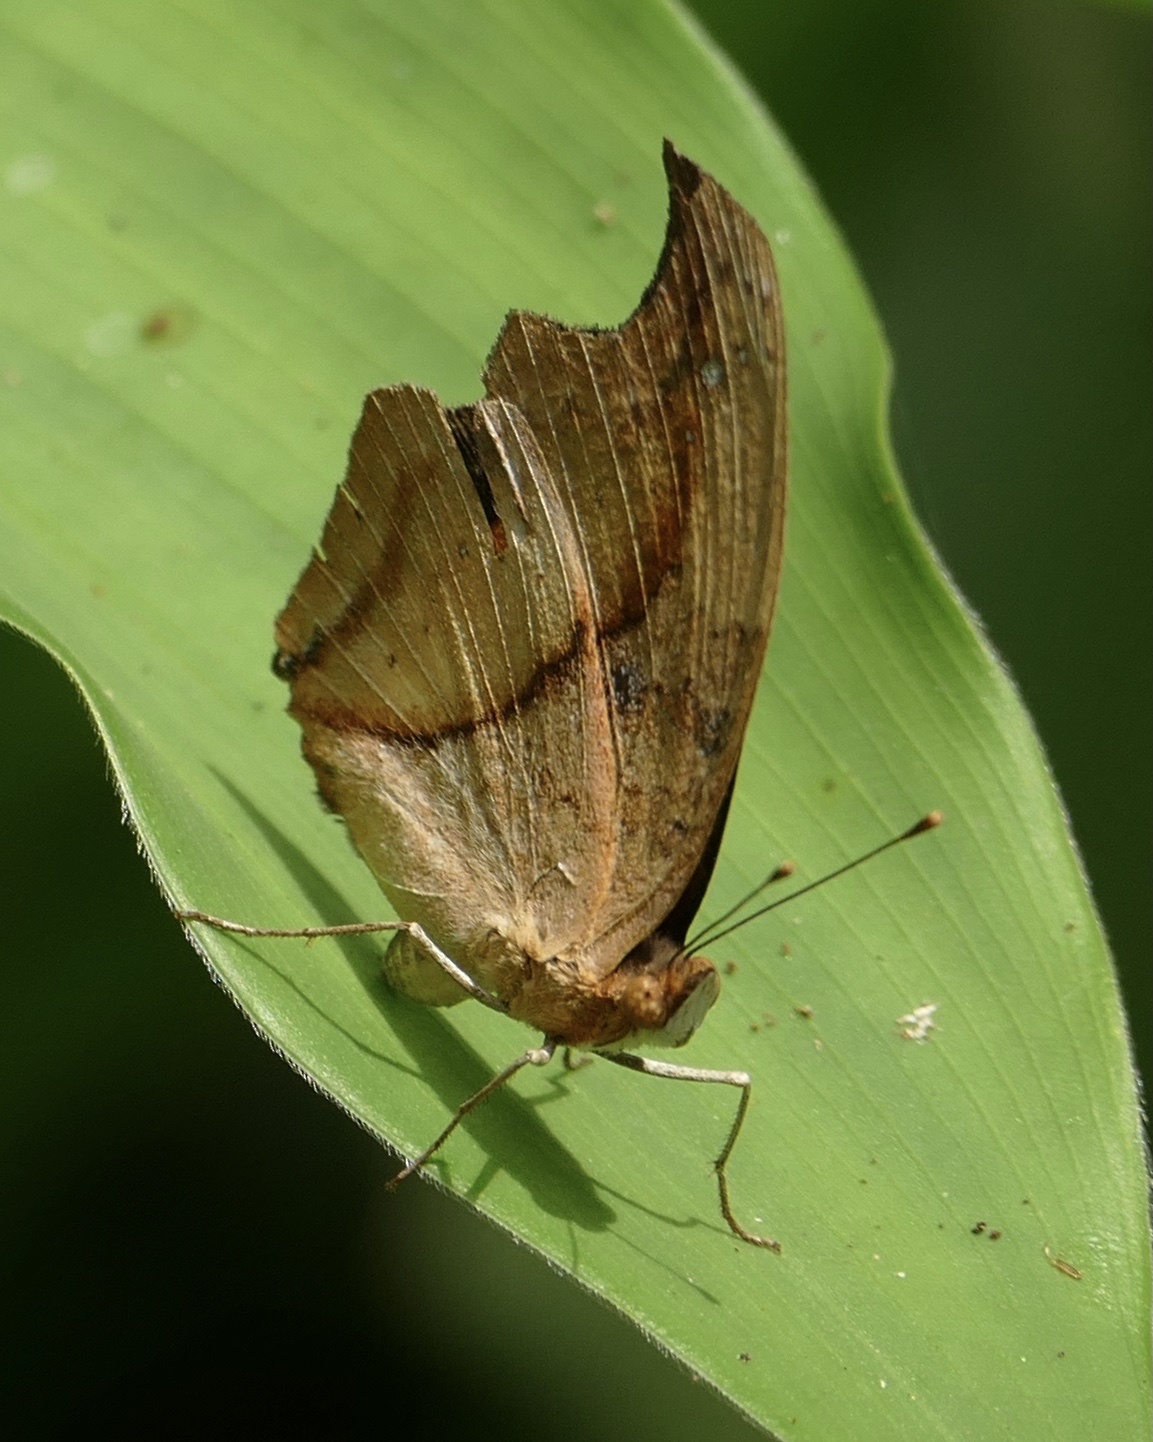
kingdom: Animalia
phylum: Arthropoda
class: Insecta
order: Lepidoptera
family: Nymphalidae
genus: Precis
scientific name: Precis pelarga
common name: Fashion commodore
